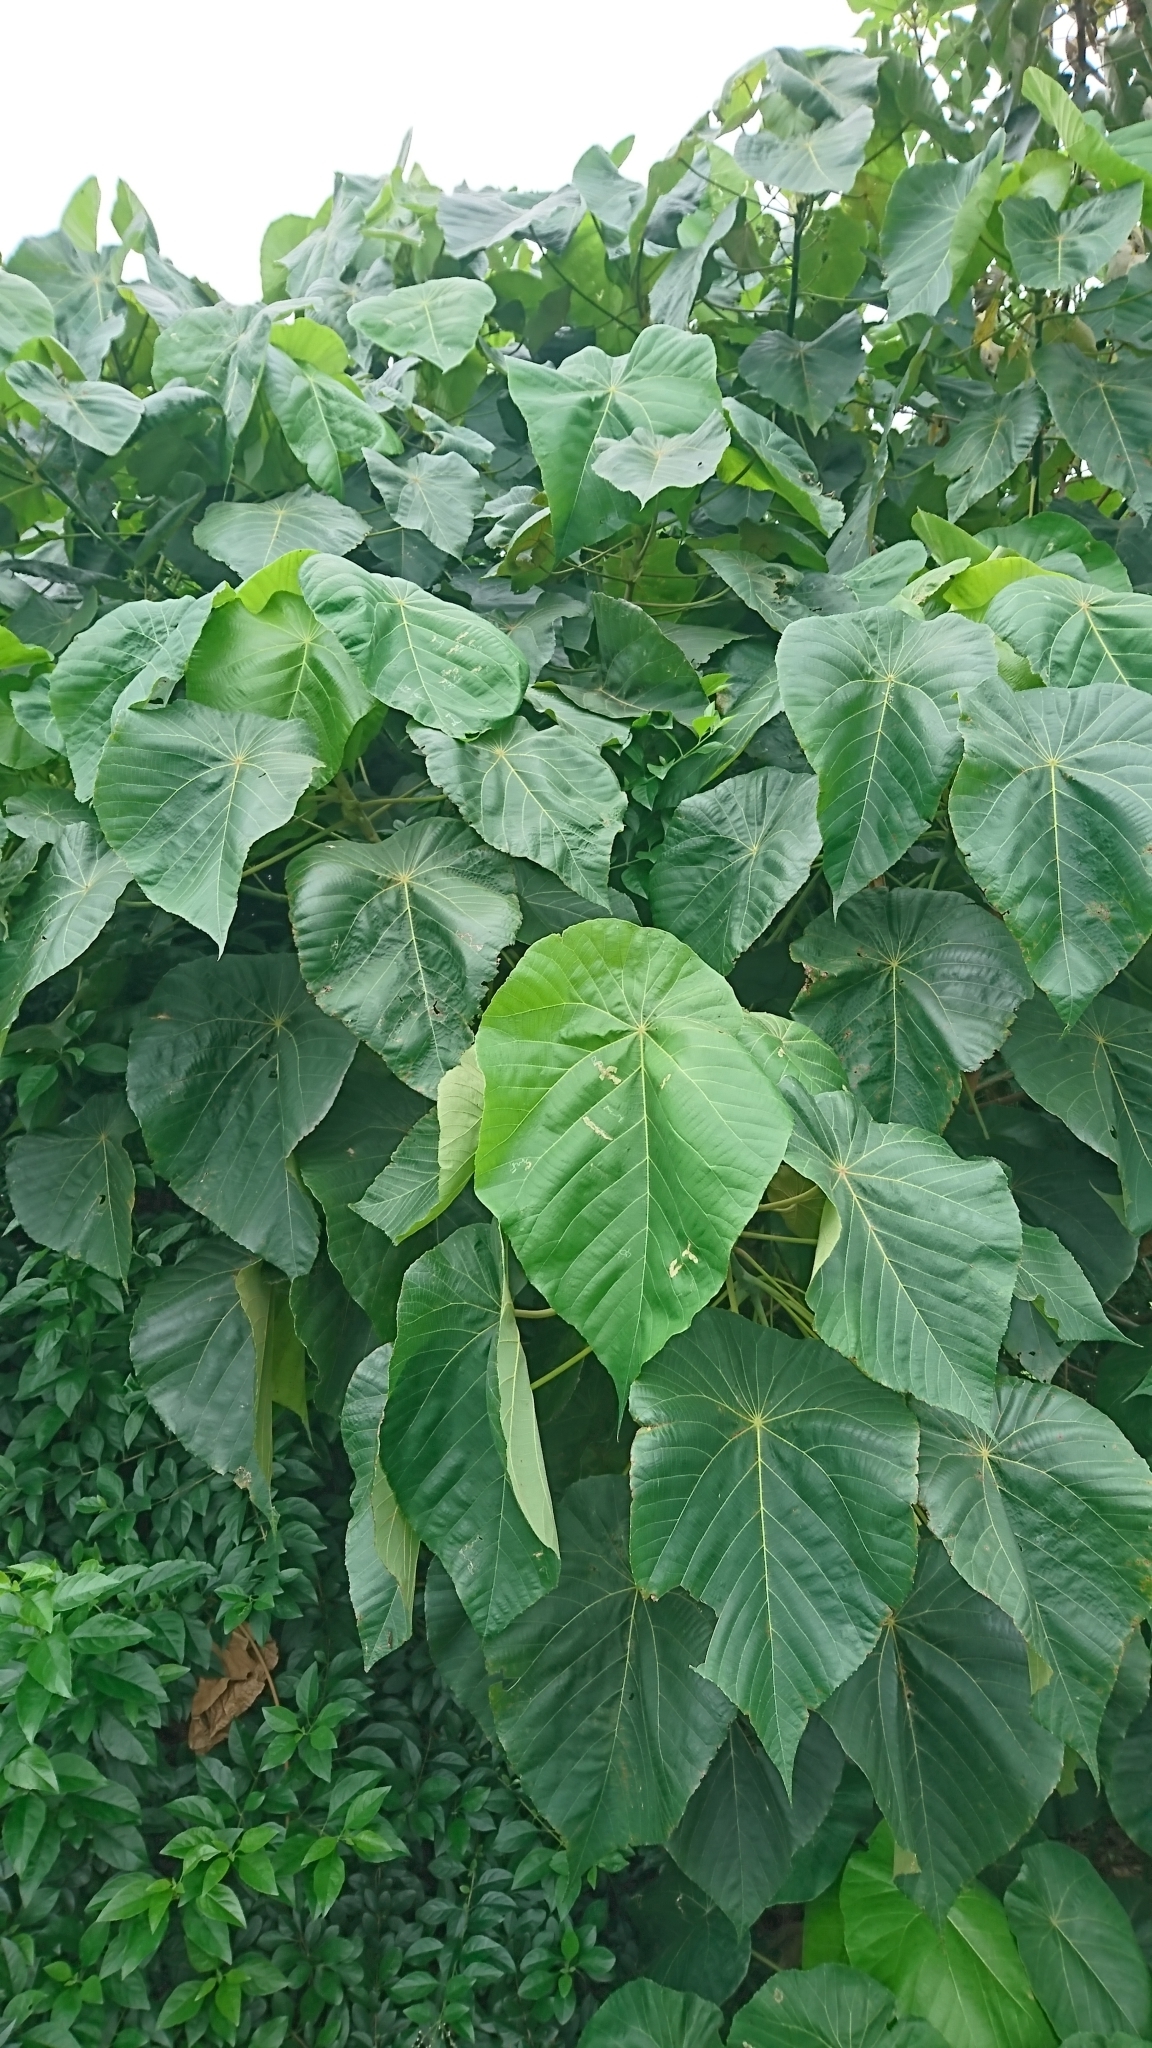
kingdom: Plantae
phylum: Tracheophyta
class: Magnoliopsida
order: Malpighiales
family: Euphorbiaceae
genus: Macaranga
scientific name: Macaranga tanarius
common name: Parasol leaf tree
